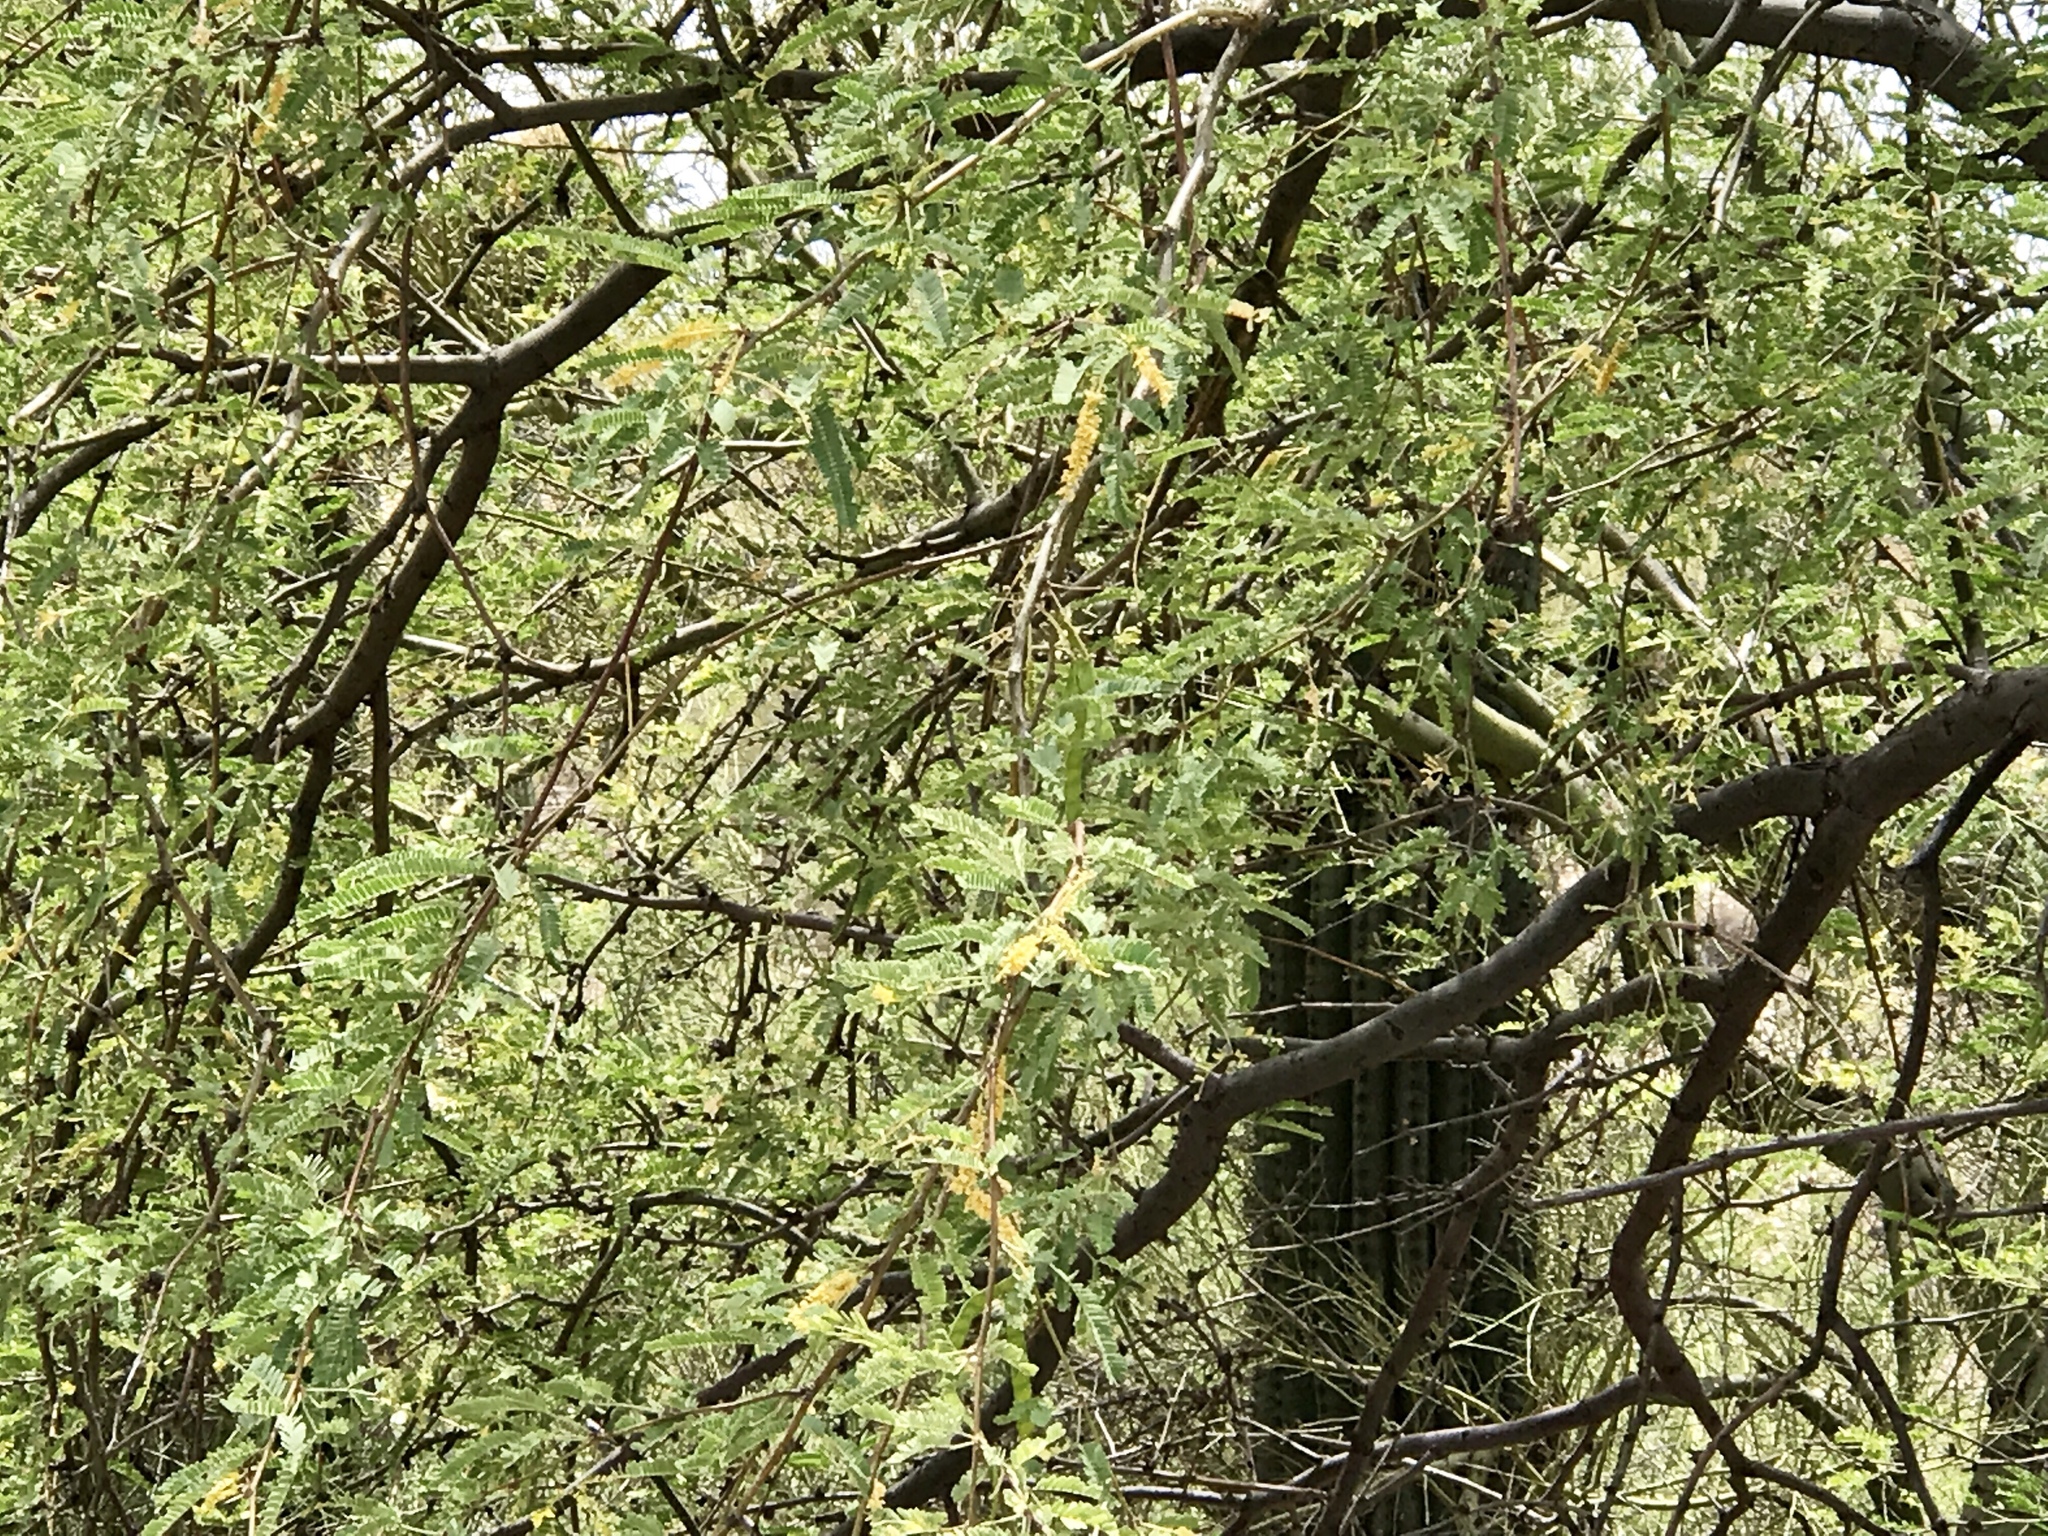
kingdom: Plantae
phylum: Tracheophyta
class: Magnoliopsida
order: Fabales
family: Fabaceae
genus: Prosopis
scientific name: Prosopis velutina
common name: Velvet mesquite
